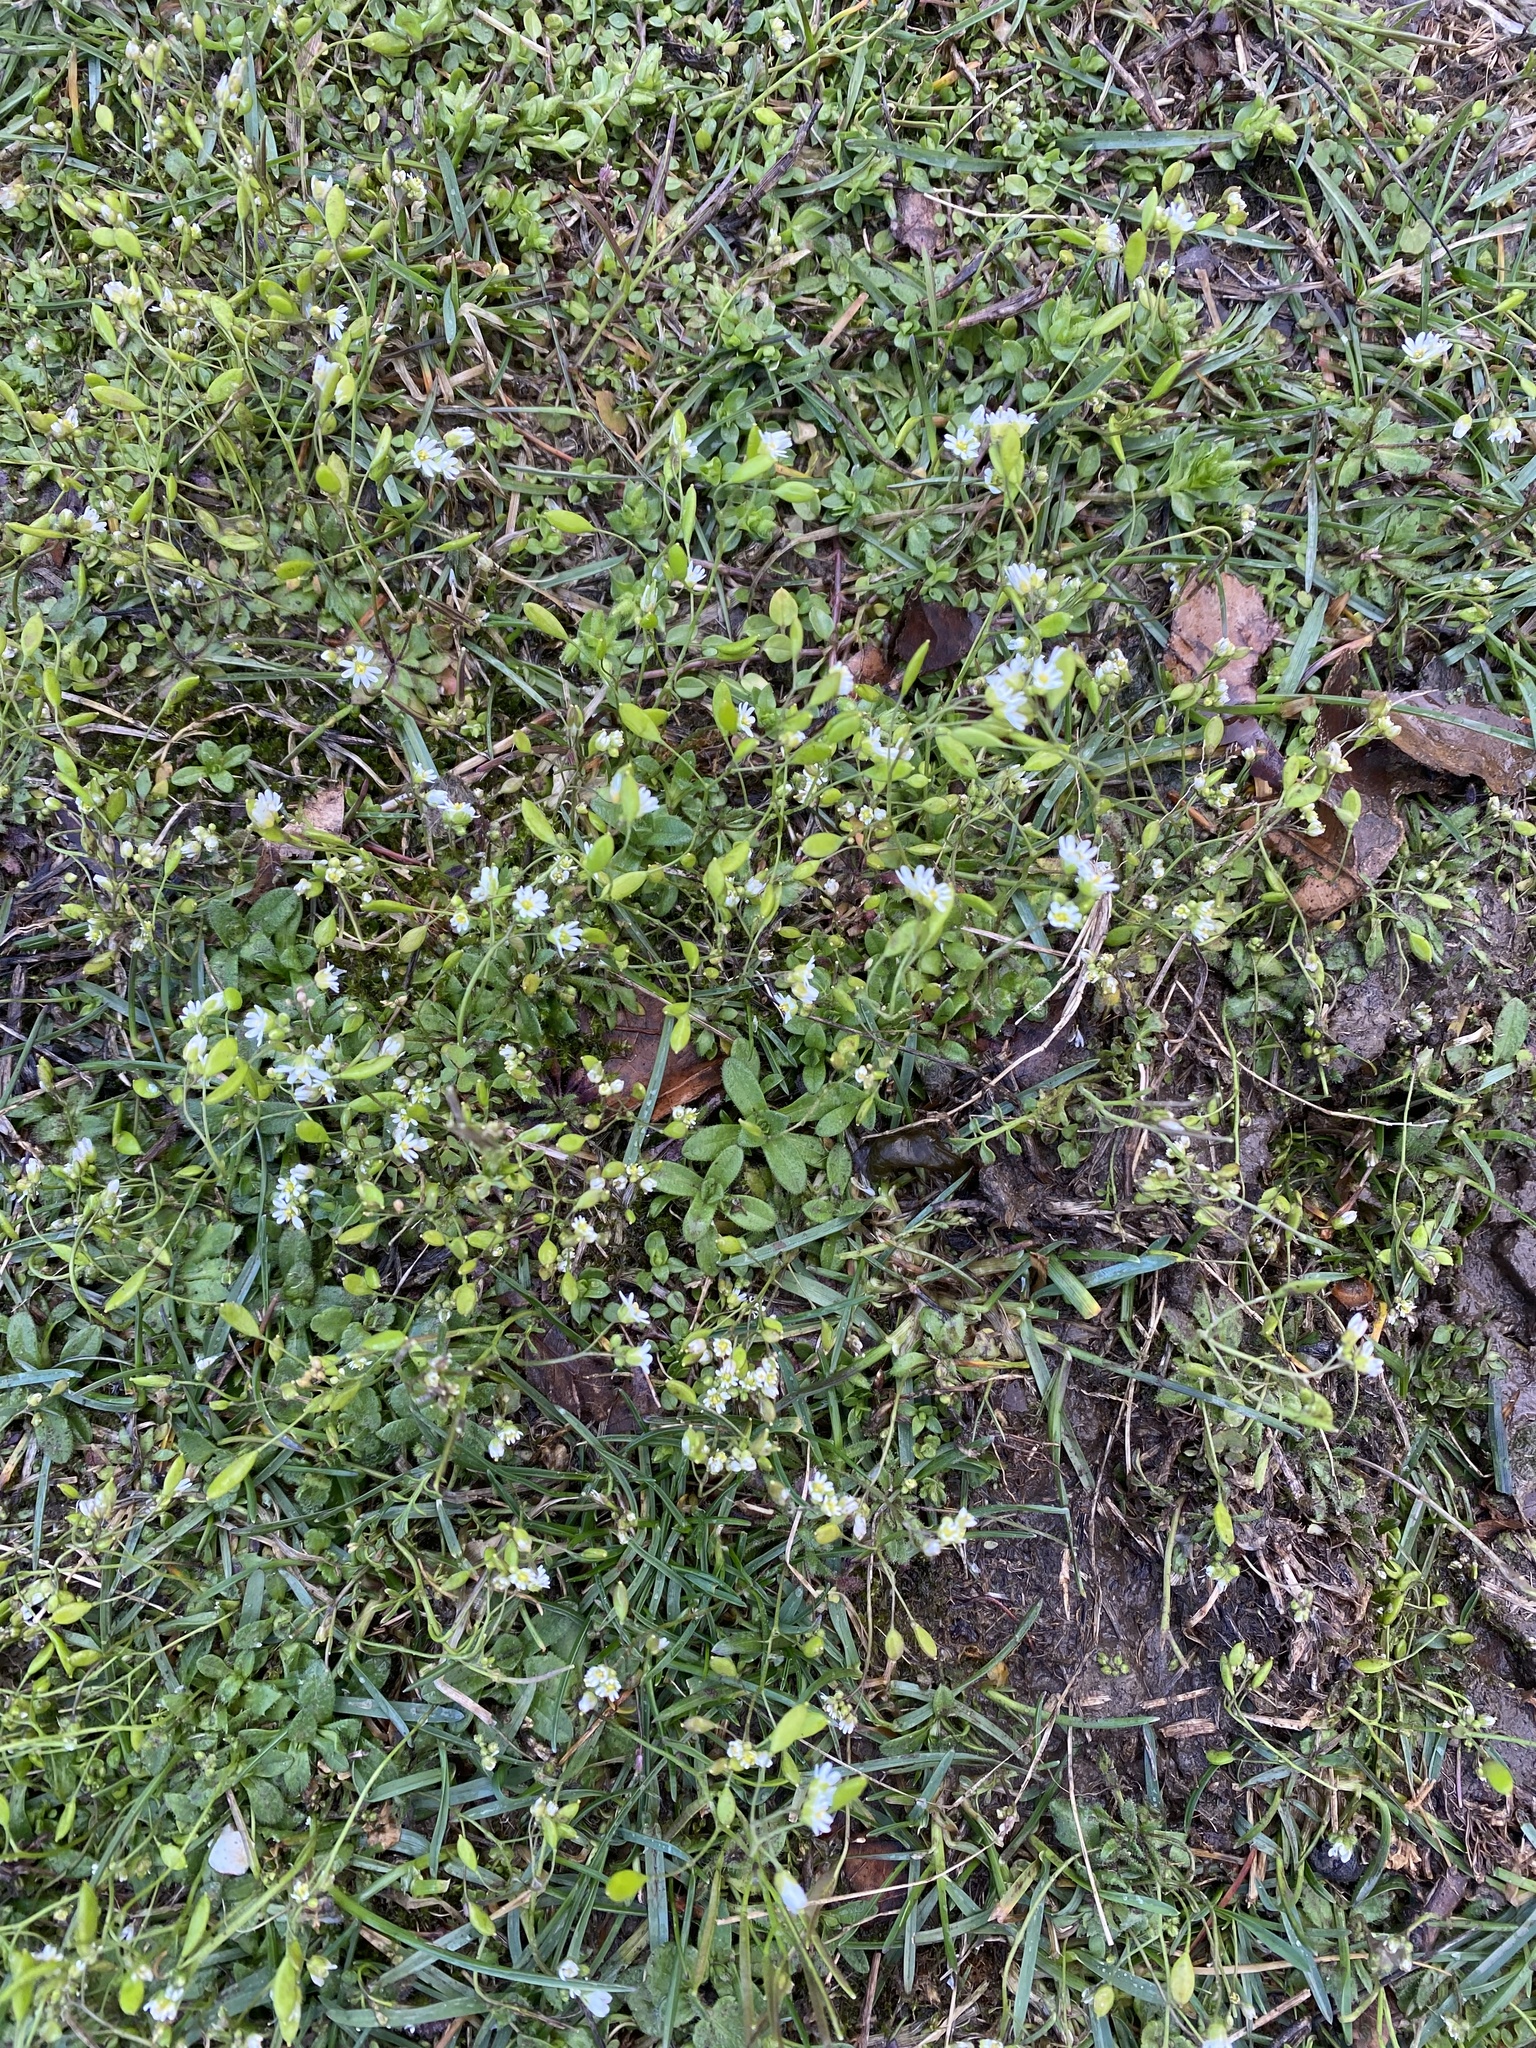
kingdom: Plantae
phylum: Tracheophyta
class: Magnoliopsida
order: Brassicales
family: Brassicaceae
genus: Draba
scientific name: Draba verna
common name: Spring draba
